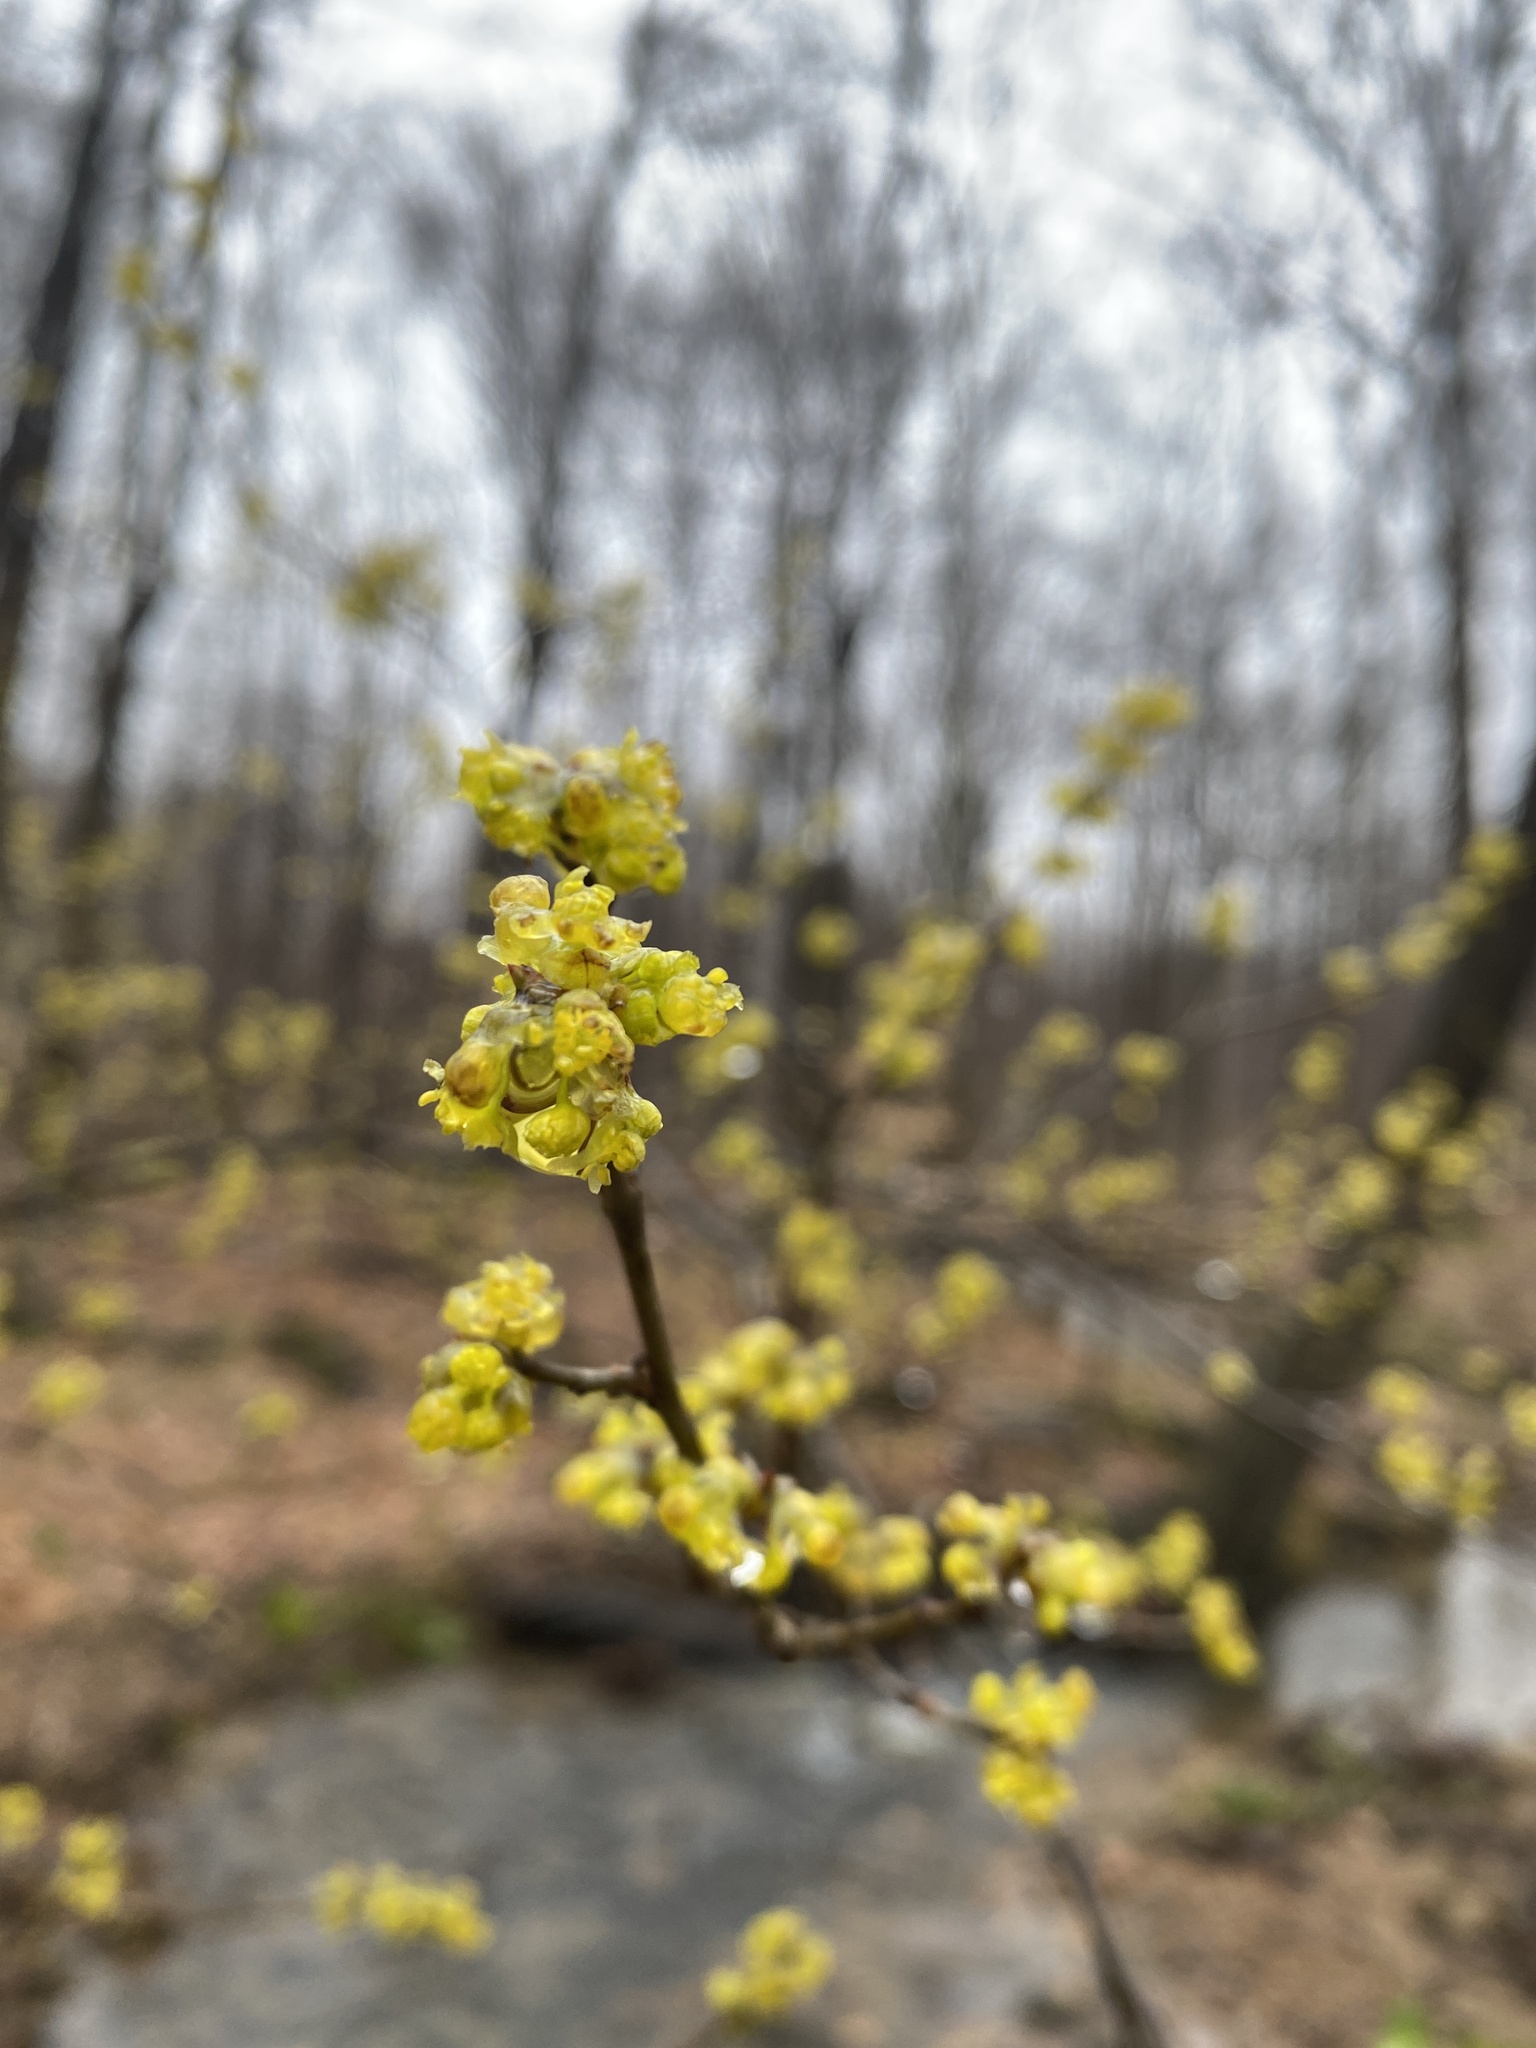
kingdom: Plantae
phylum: Tracheophyta
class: Magnoliopsida
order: Laurales
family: Lauraceae
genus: Lindera
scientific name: Lindera benzoin
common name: Spicebush
